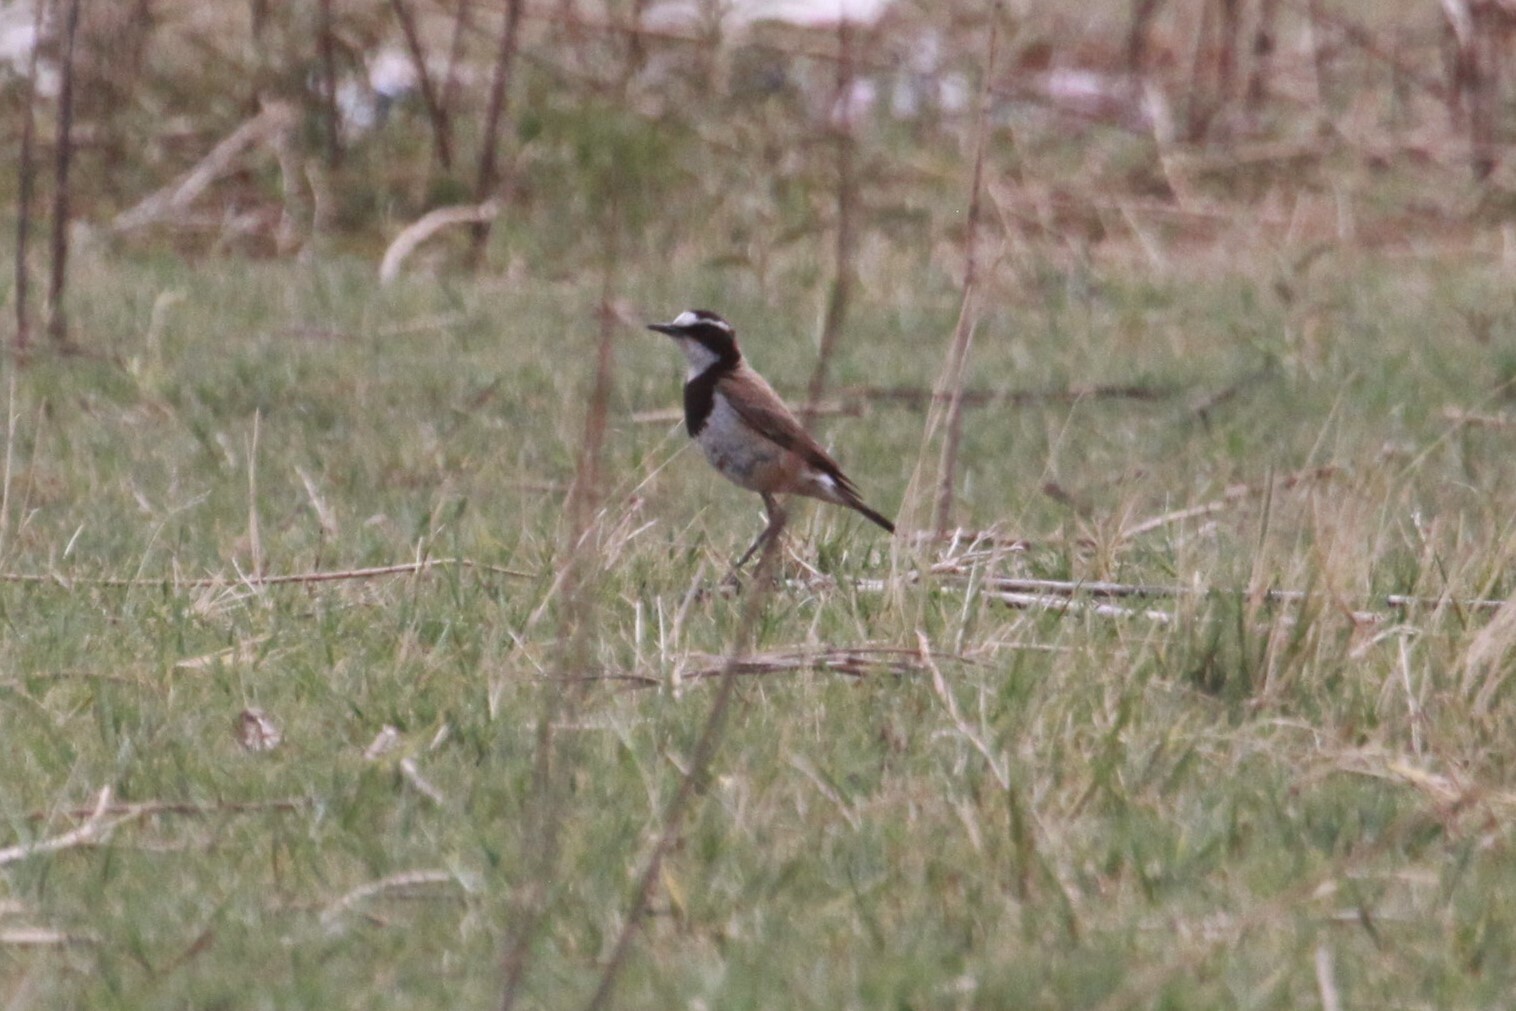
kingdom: Animalia
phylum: Chordata
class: Aves
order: Passeriformes
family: Muscicapidae
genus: Oenanthe
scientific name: Oenanthe pileata
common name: Capped wheatear
